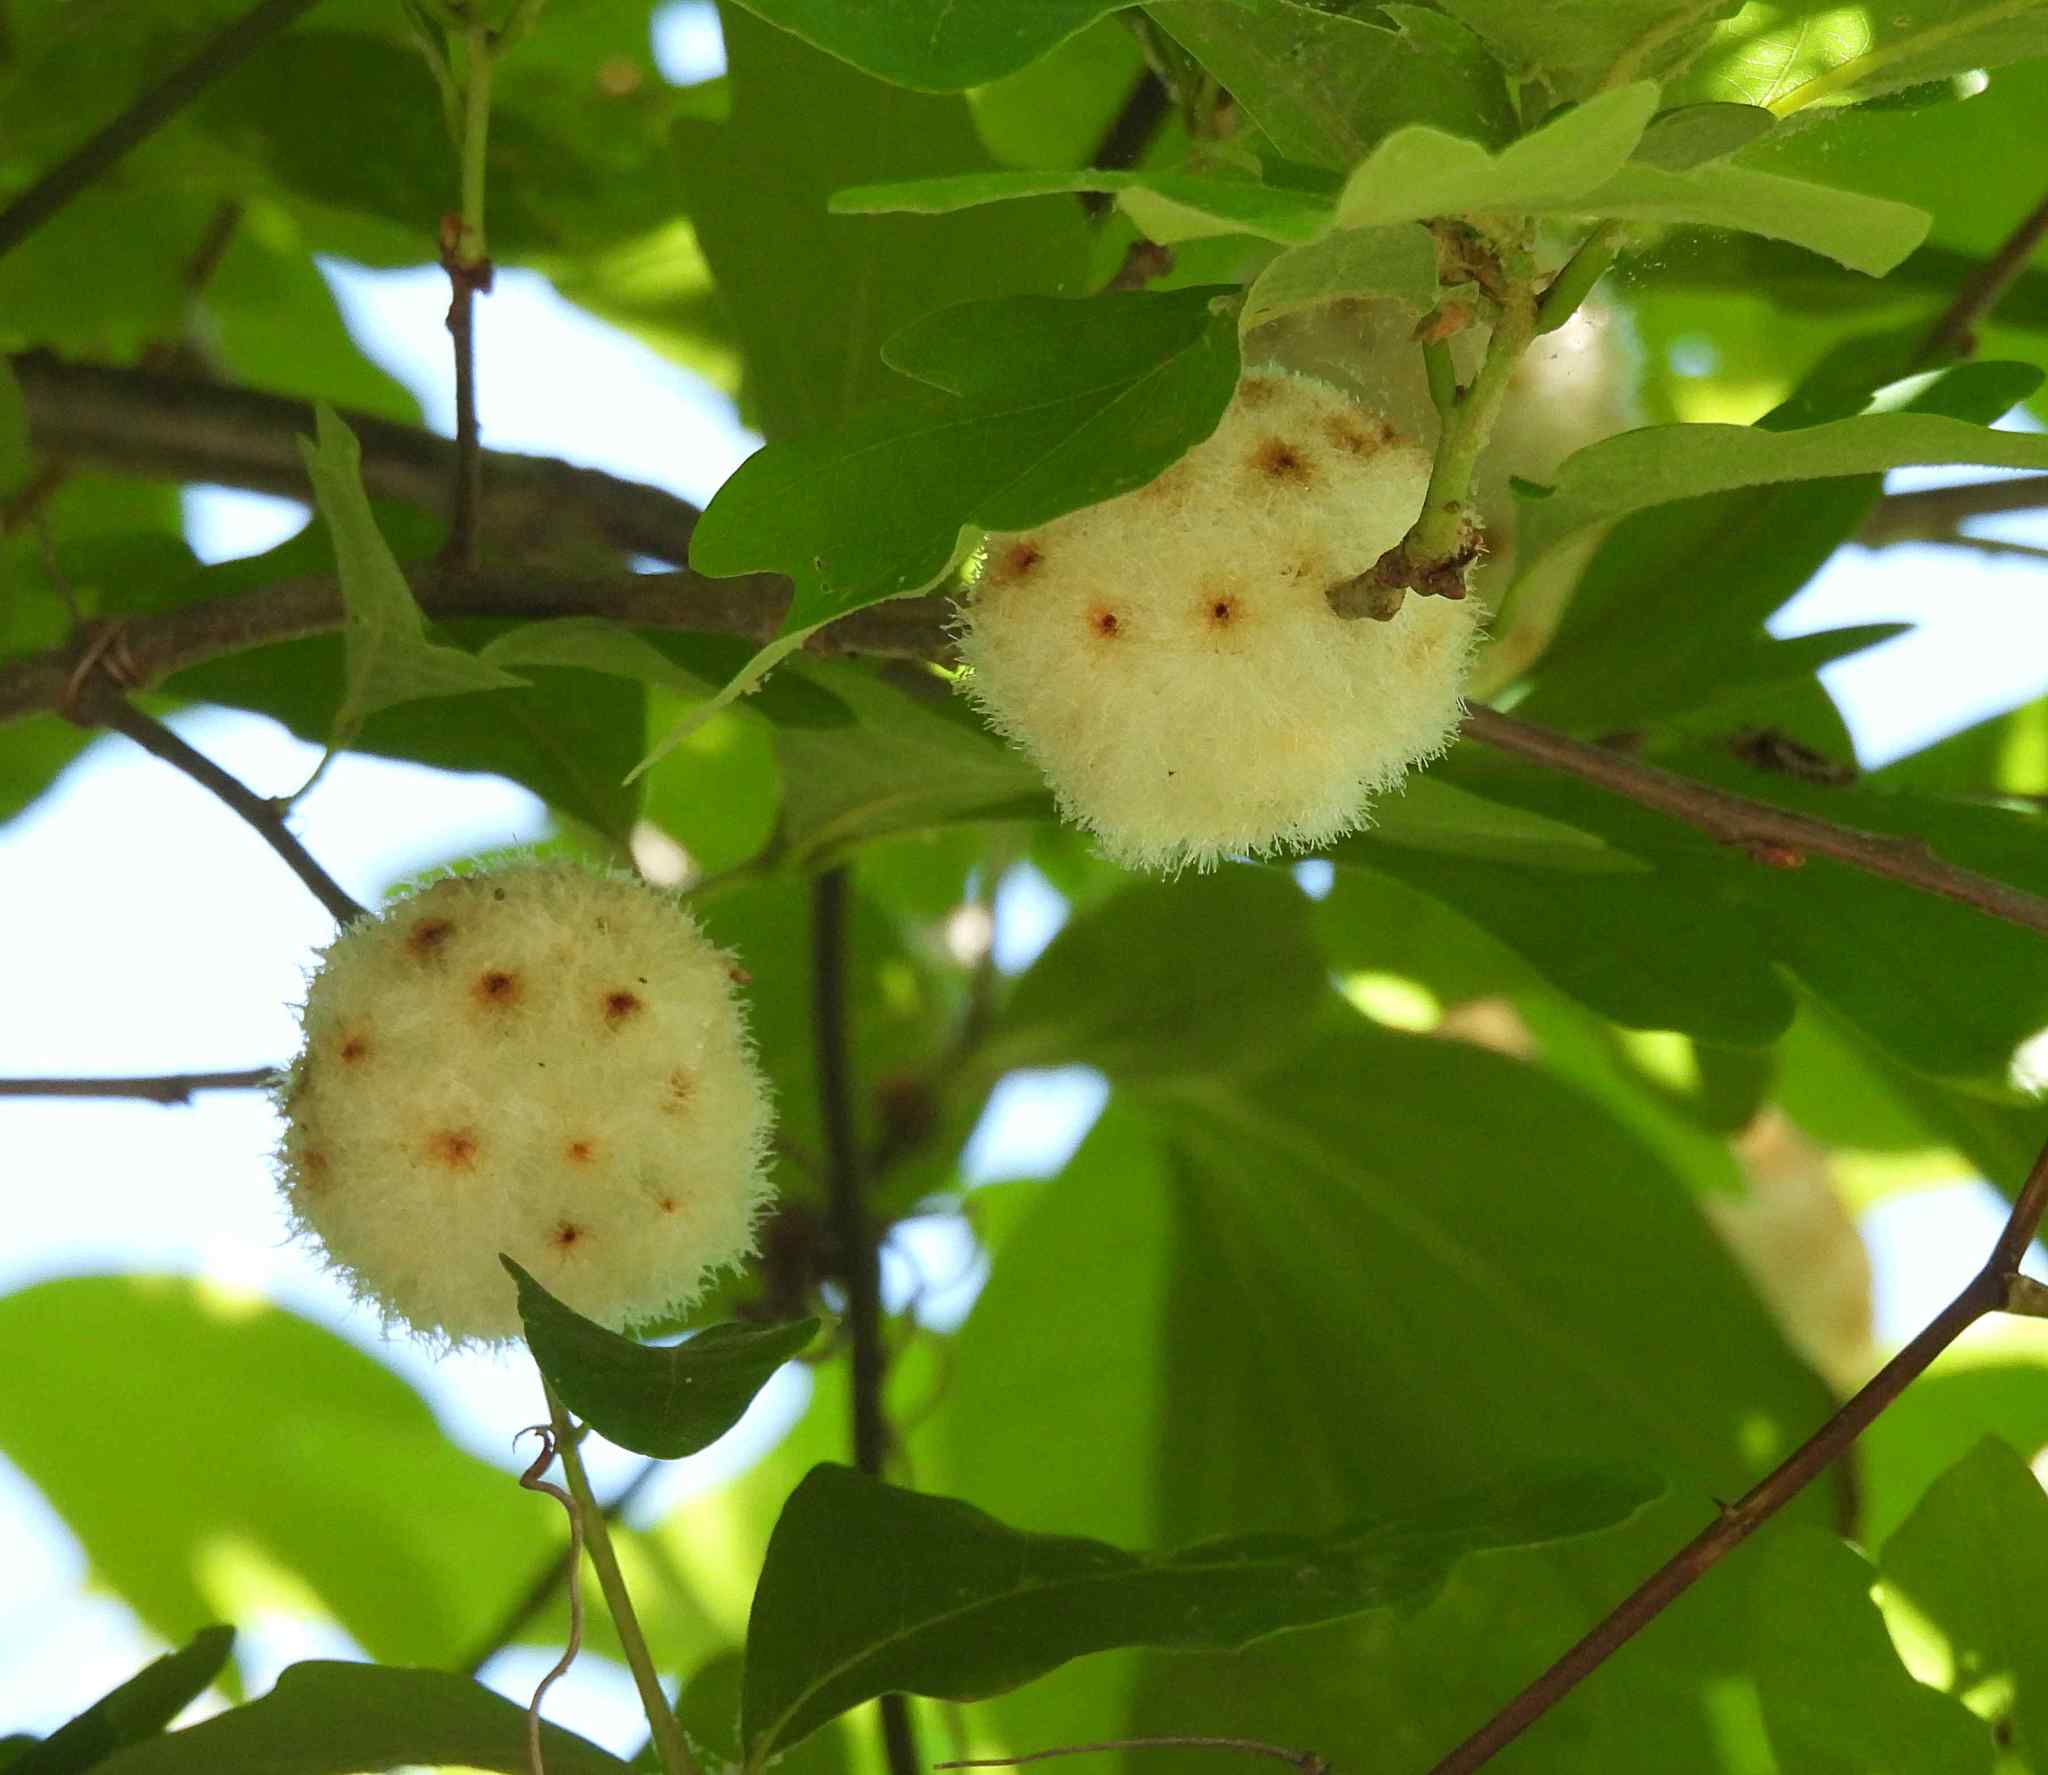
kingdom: Animalia
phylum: Arthropoda
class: Insecta
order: Hymenoptera
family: Cynipidae
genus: Callirhytis
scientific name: Callirhytis
